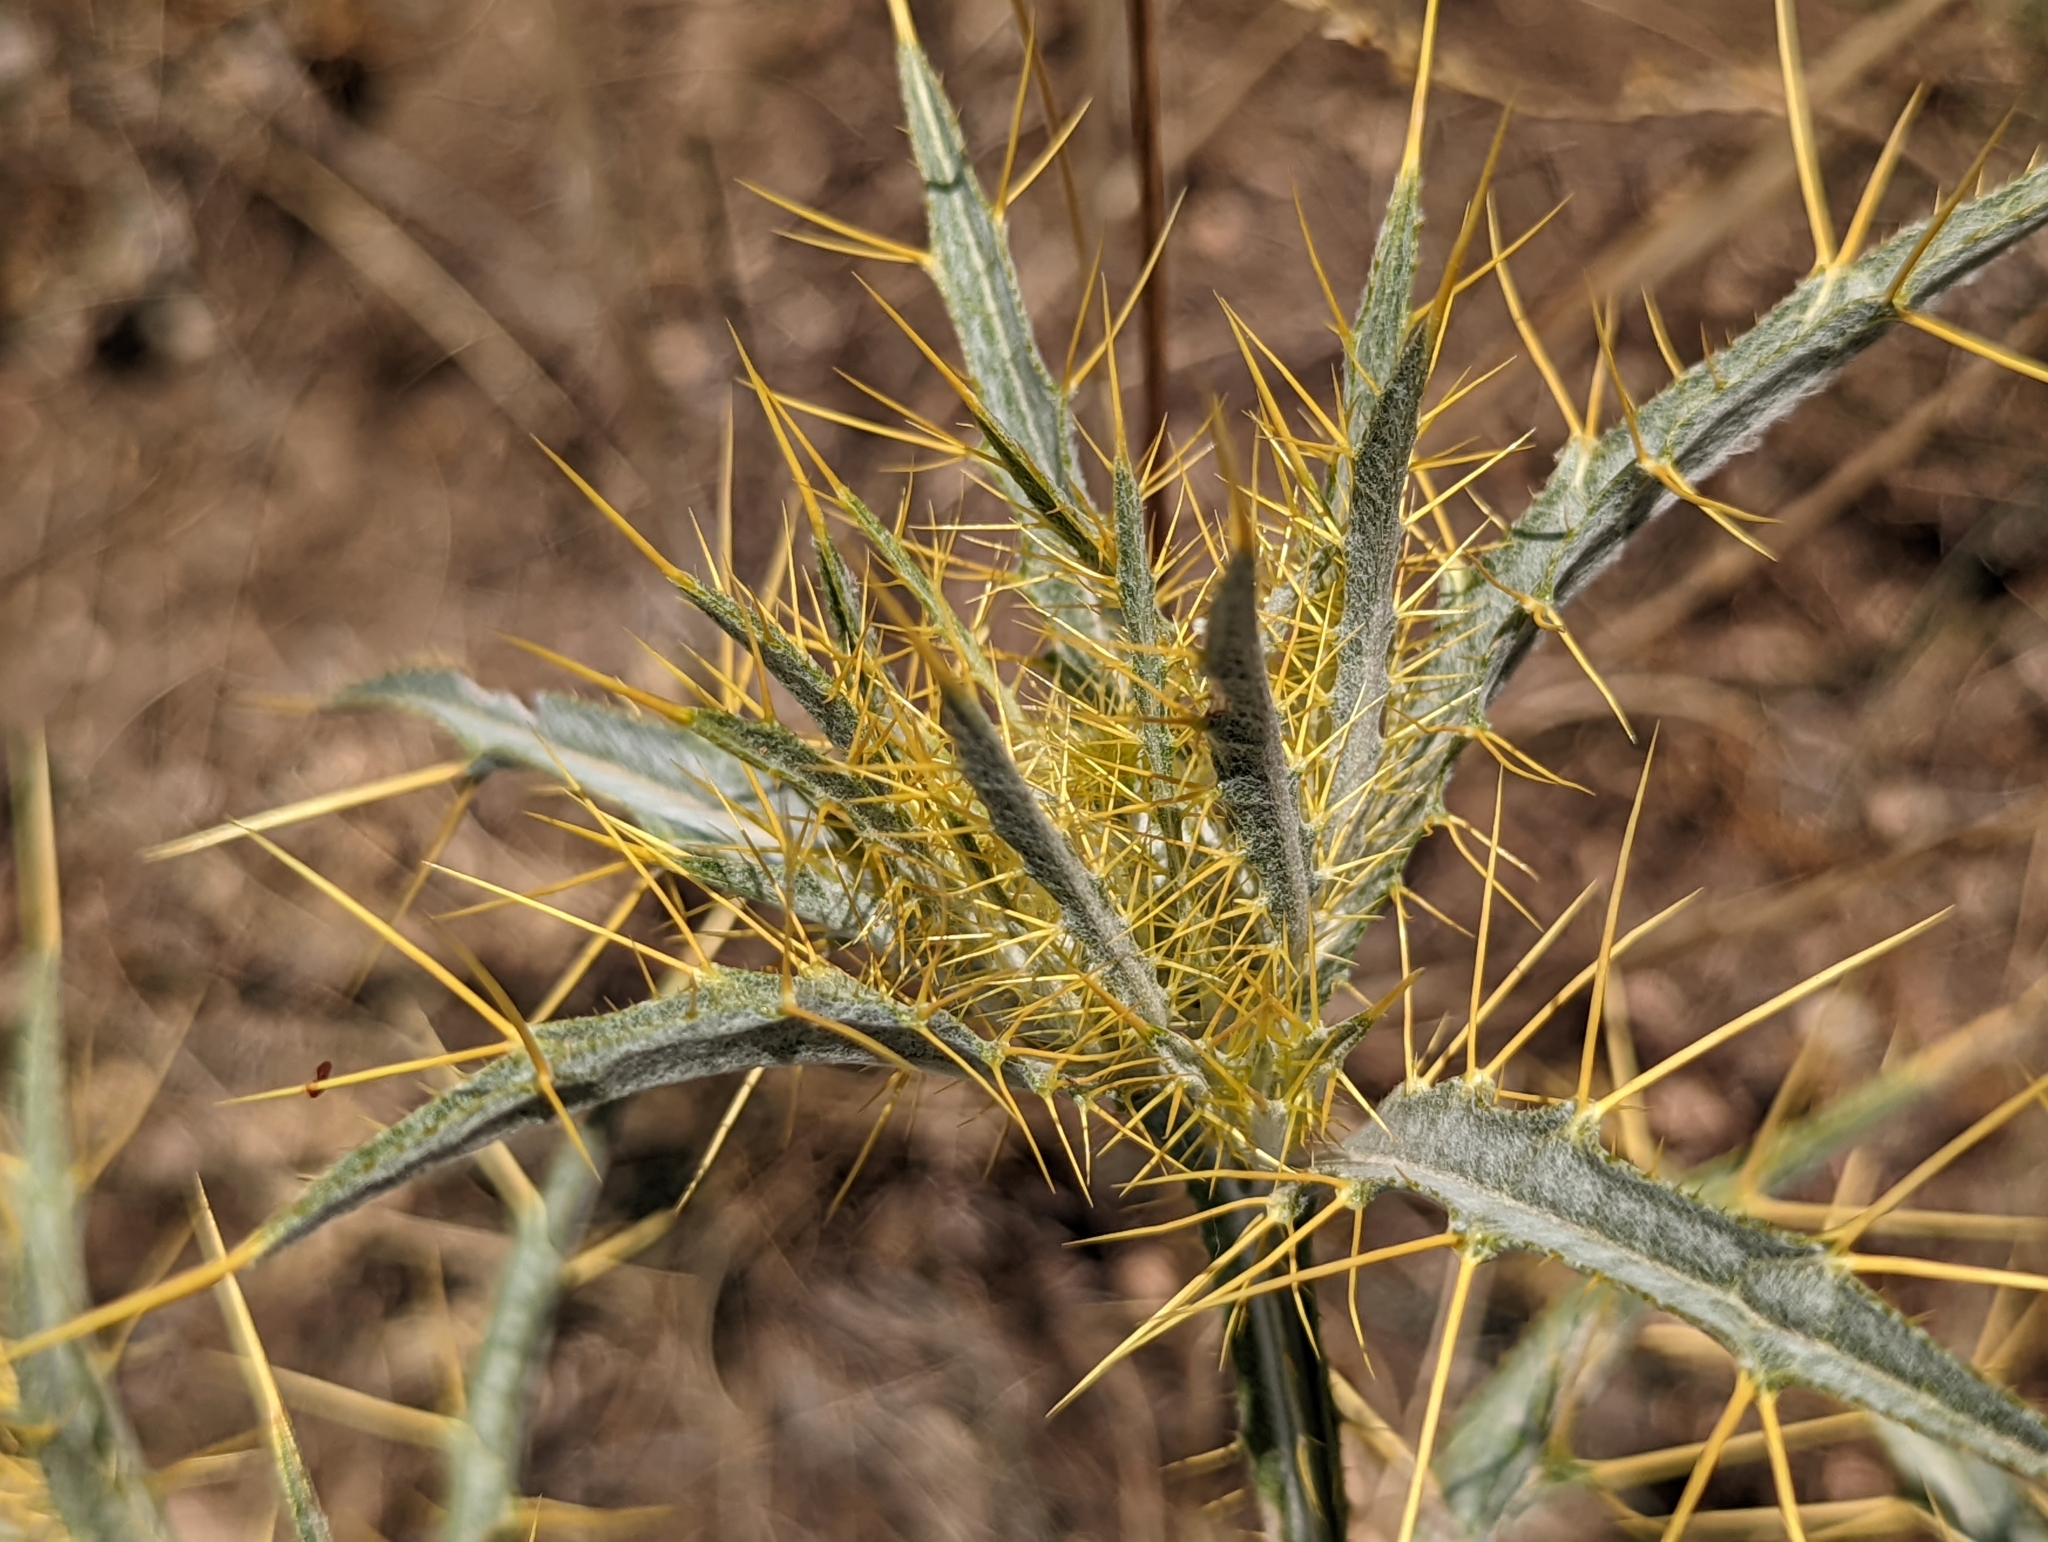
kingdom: Plantae
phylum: Tracheophyta
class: Magnoliopsida
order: Asterales
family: Asteraceae
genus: Picnomon
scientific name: Picnomon acarna
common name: Soldier thistle
